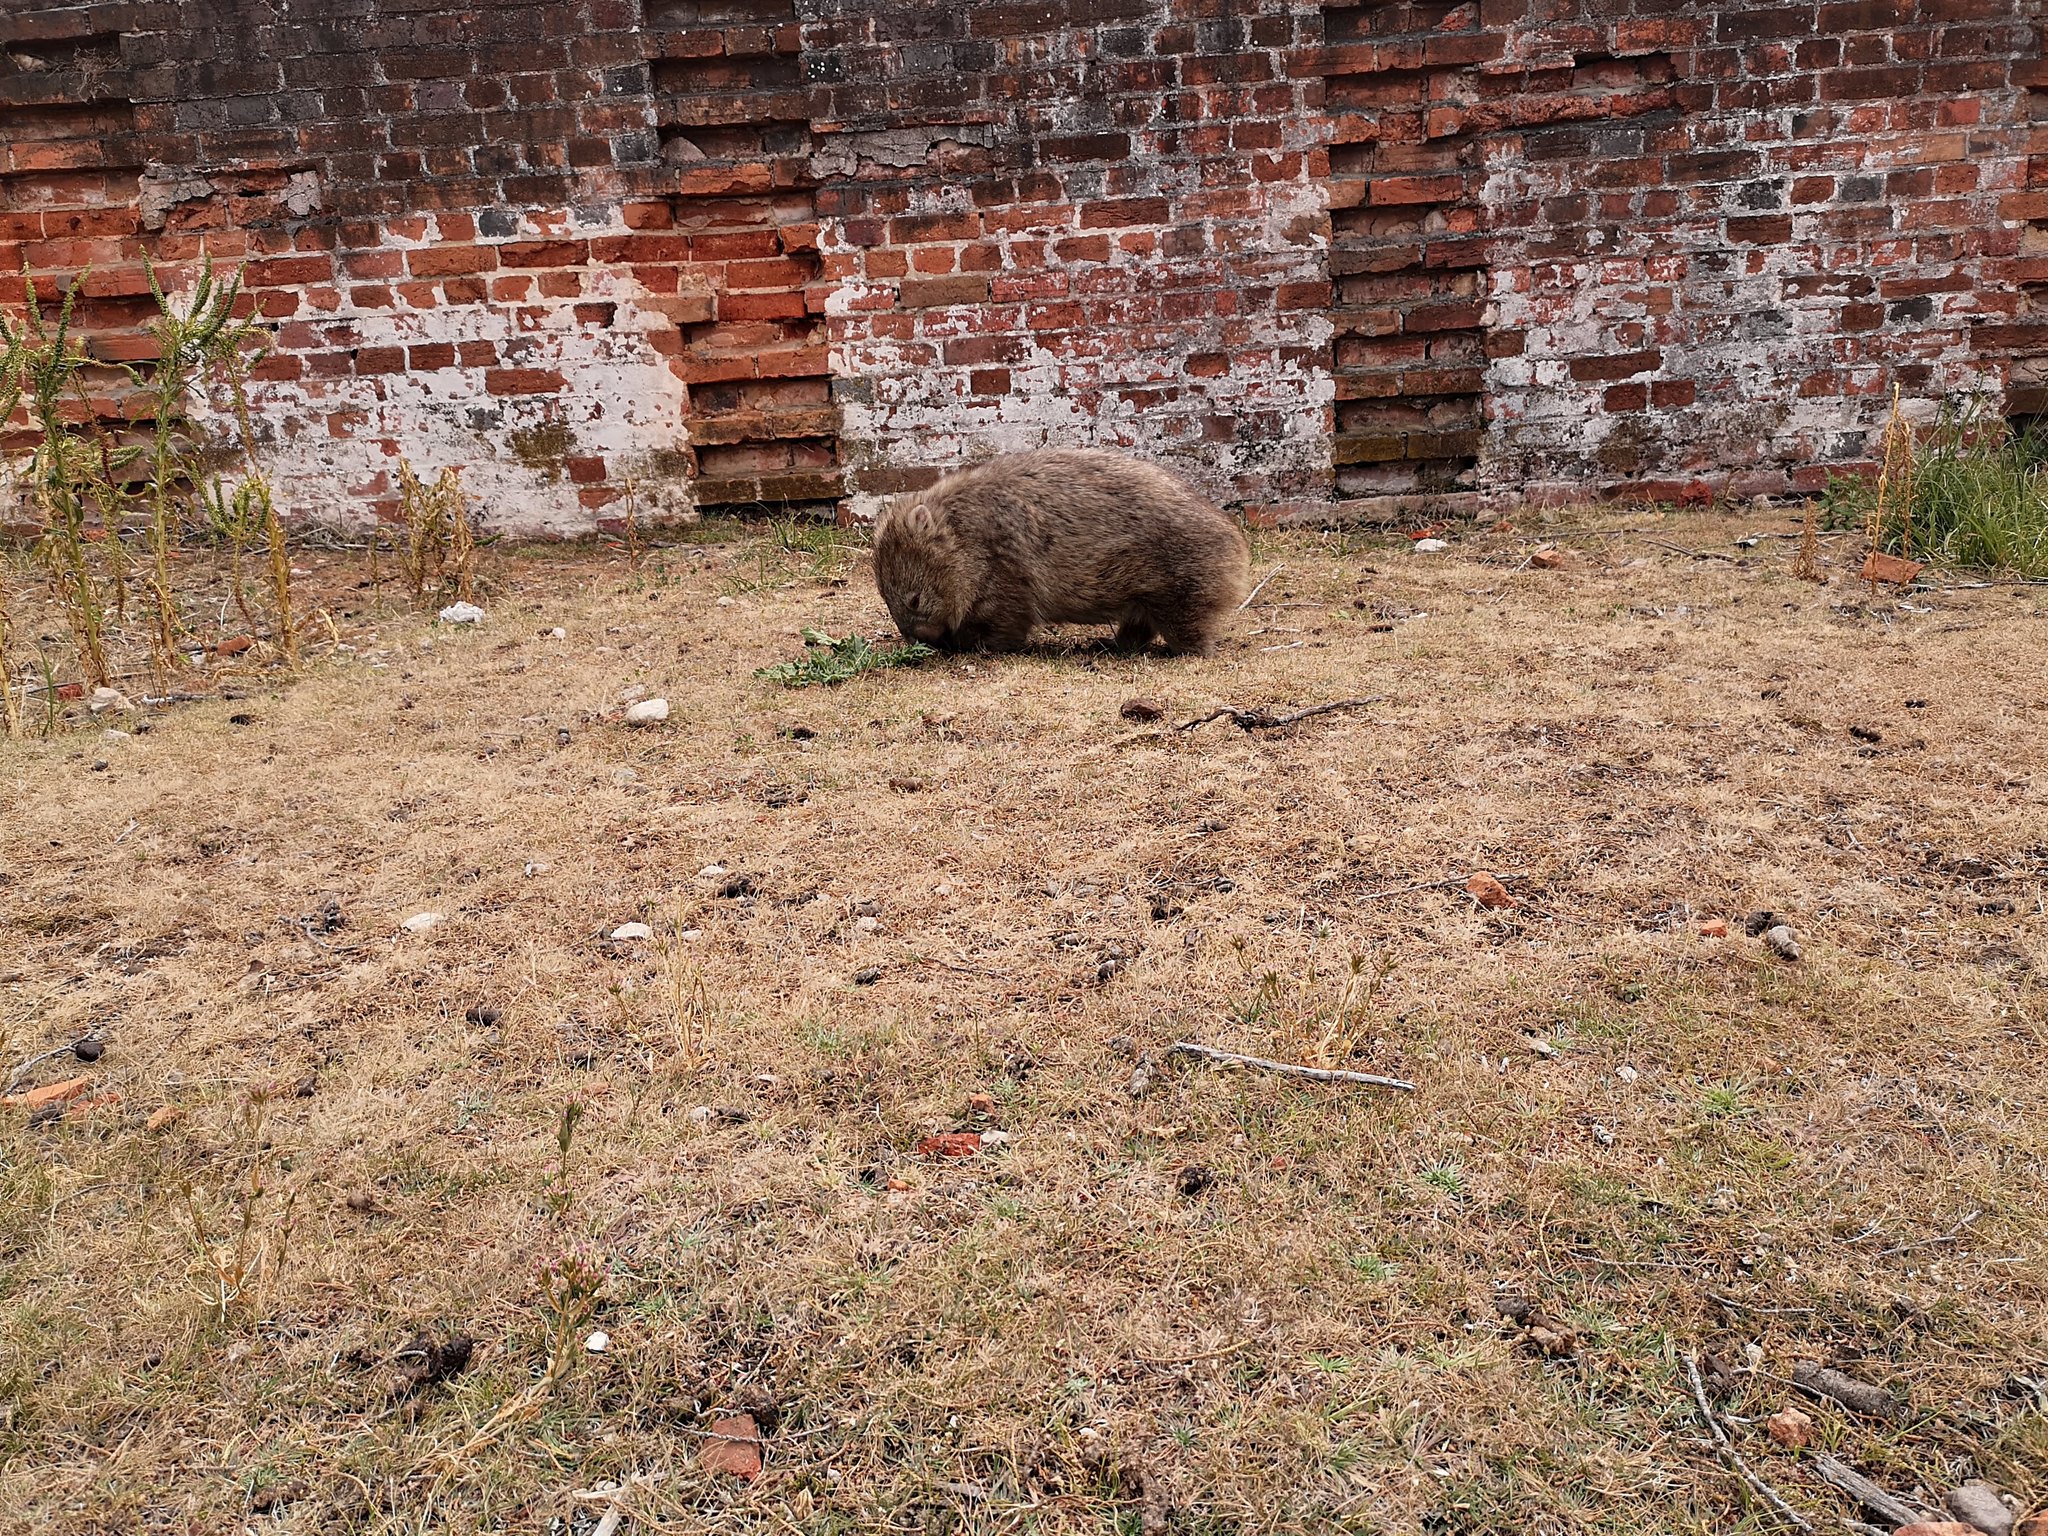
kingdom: Animalia
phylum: Chordata
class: Mammalia
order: Diprotodontia
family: Vombatidae
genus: Vombatus
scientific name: Vombatus ursinus
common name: Common wombat
